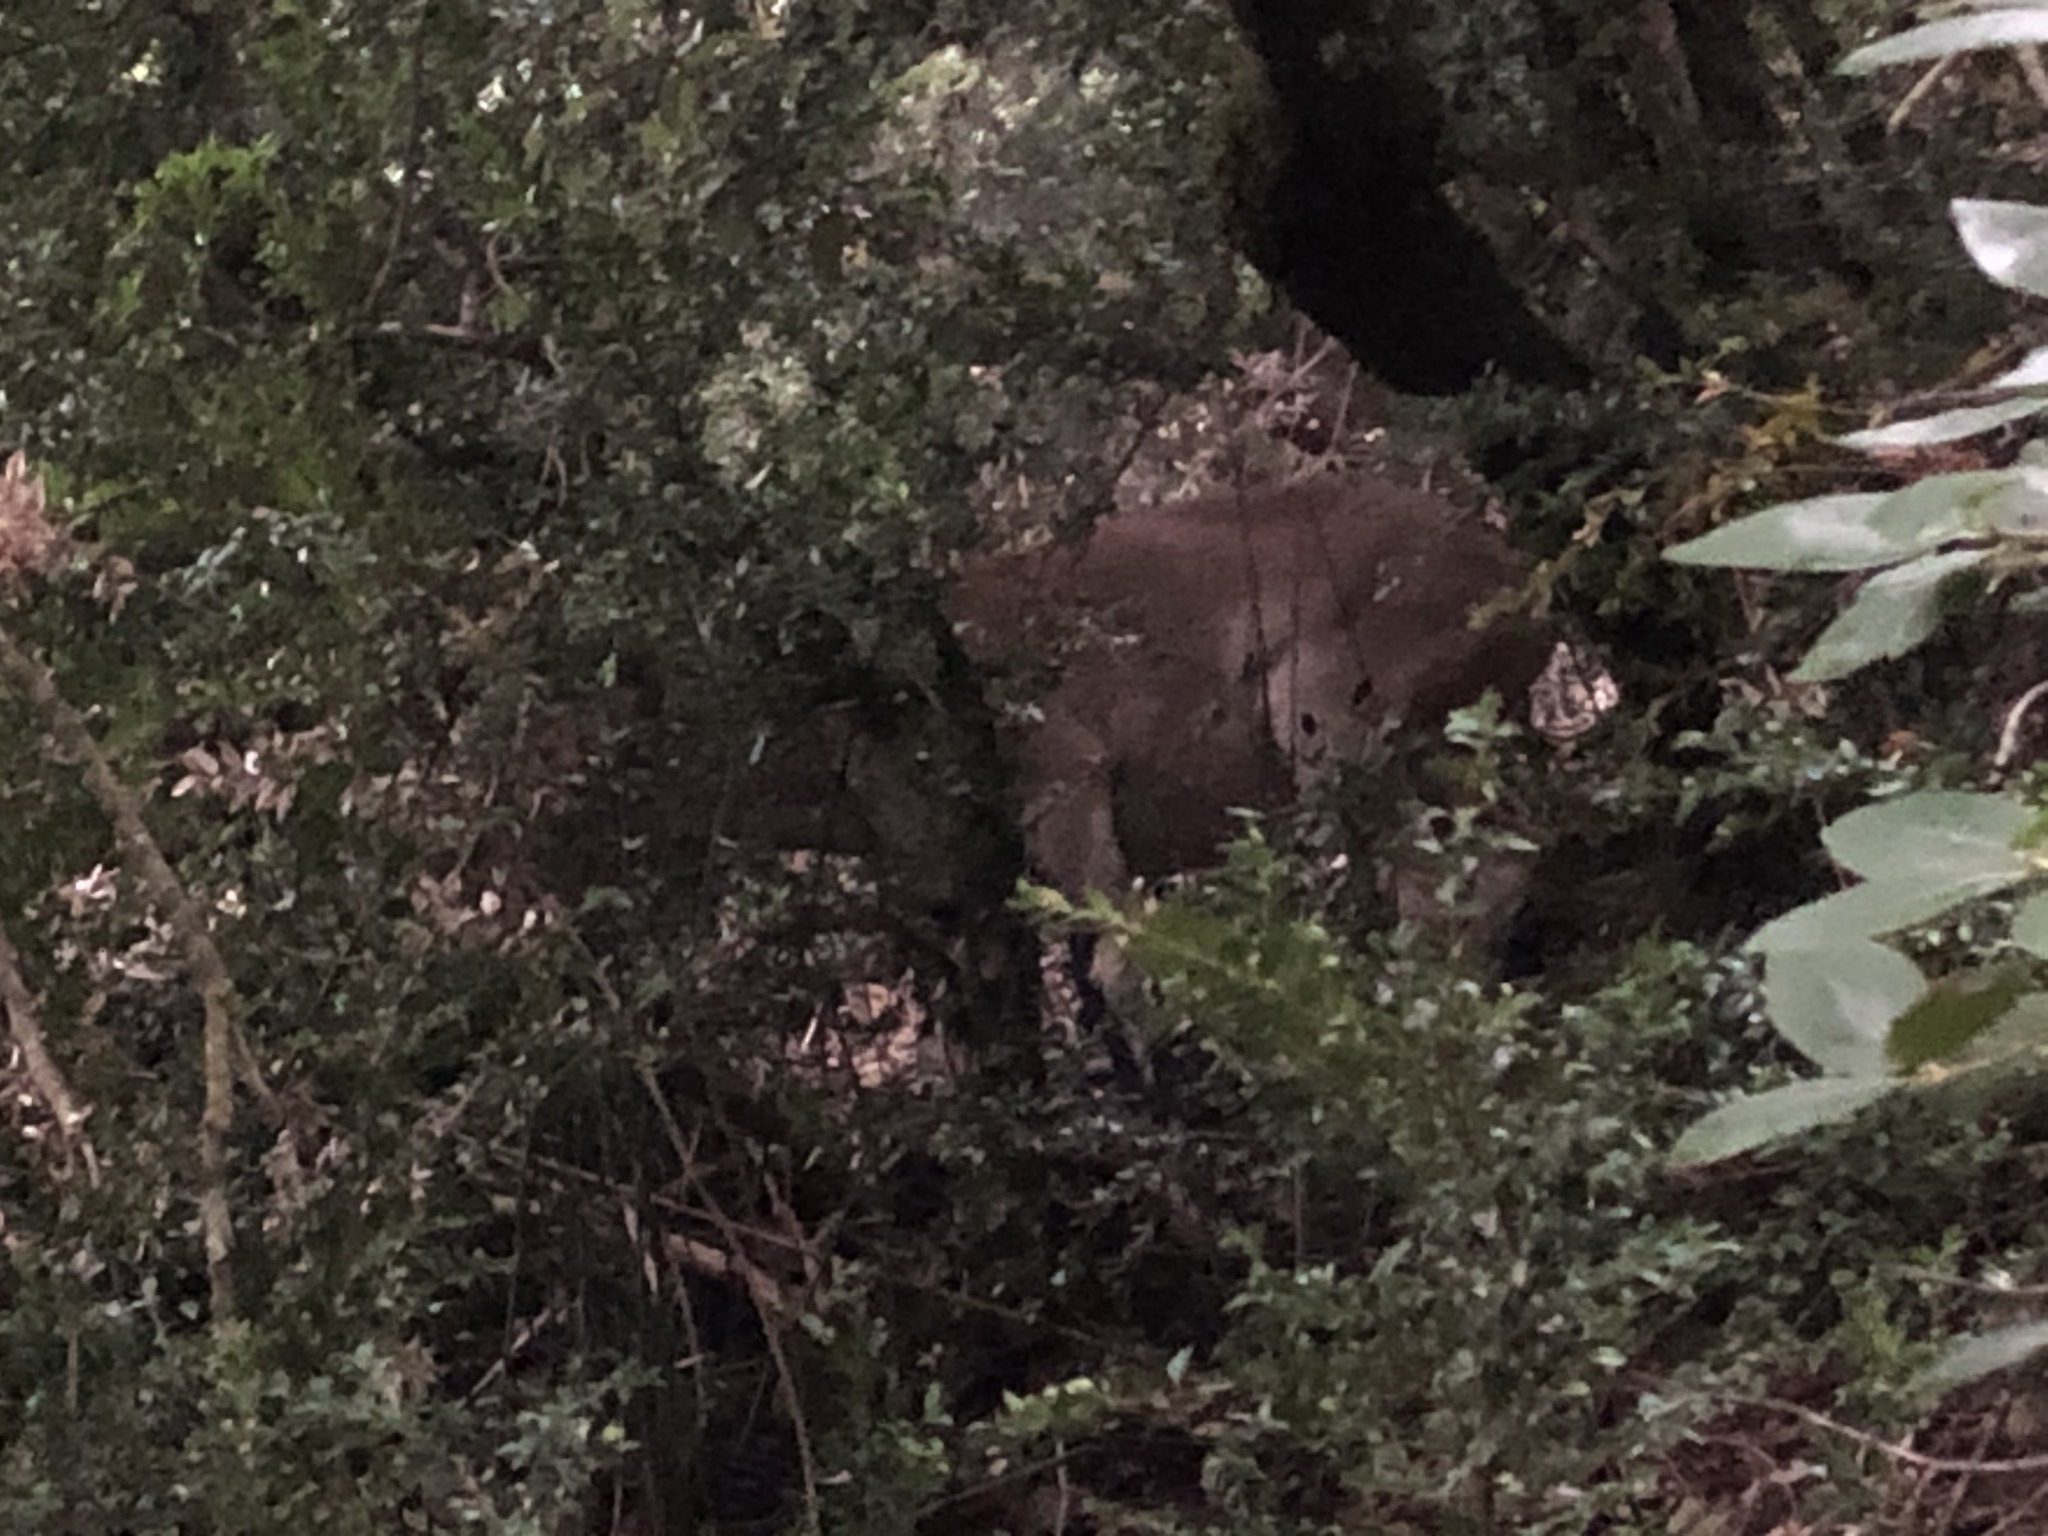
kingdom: Animalia
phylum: Chordata
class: Mammalia
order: Artiodactyla
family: Bovidae
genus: Capra
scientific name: Capra pyrenaica
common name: Spanish ibex
